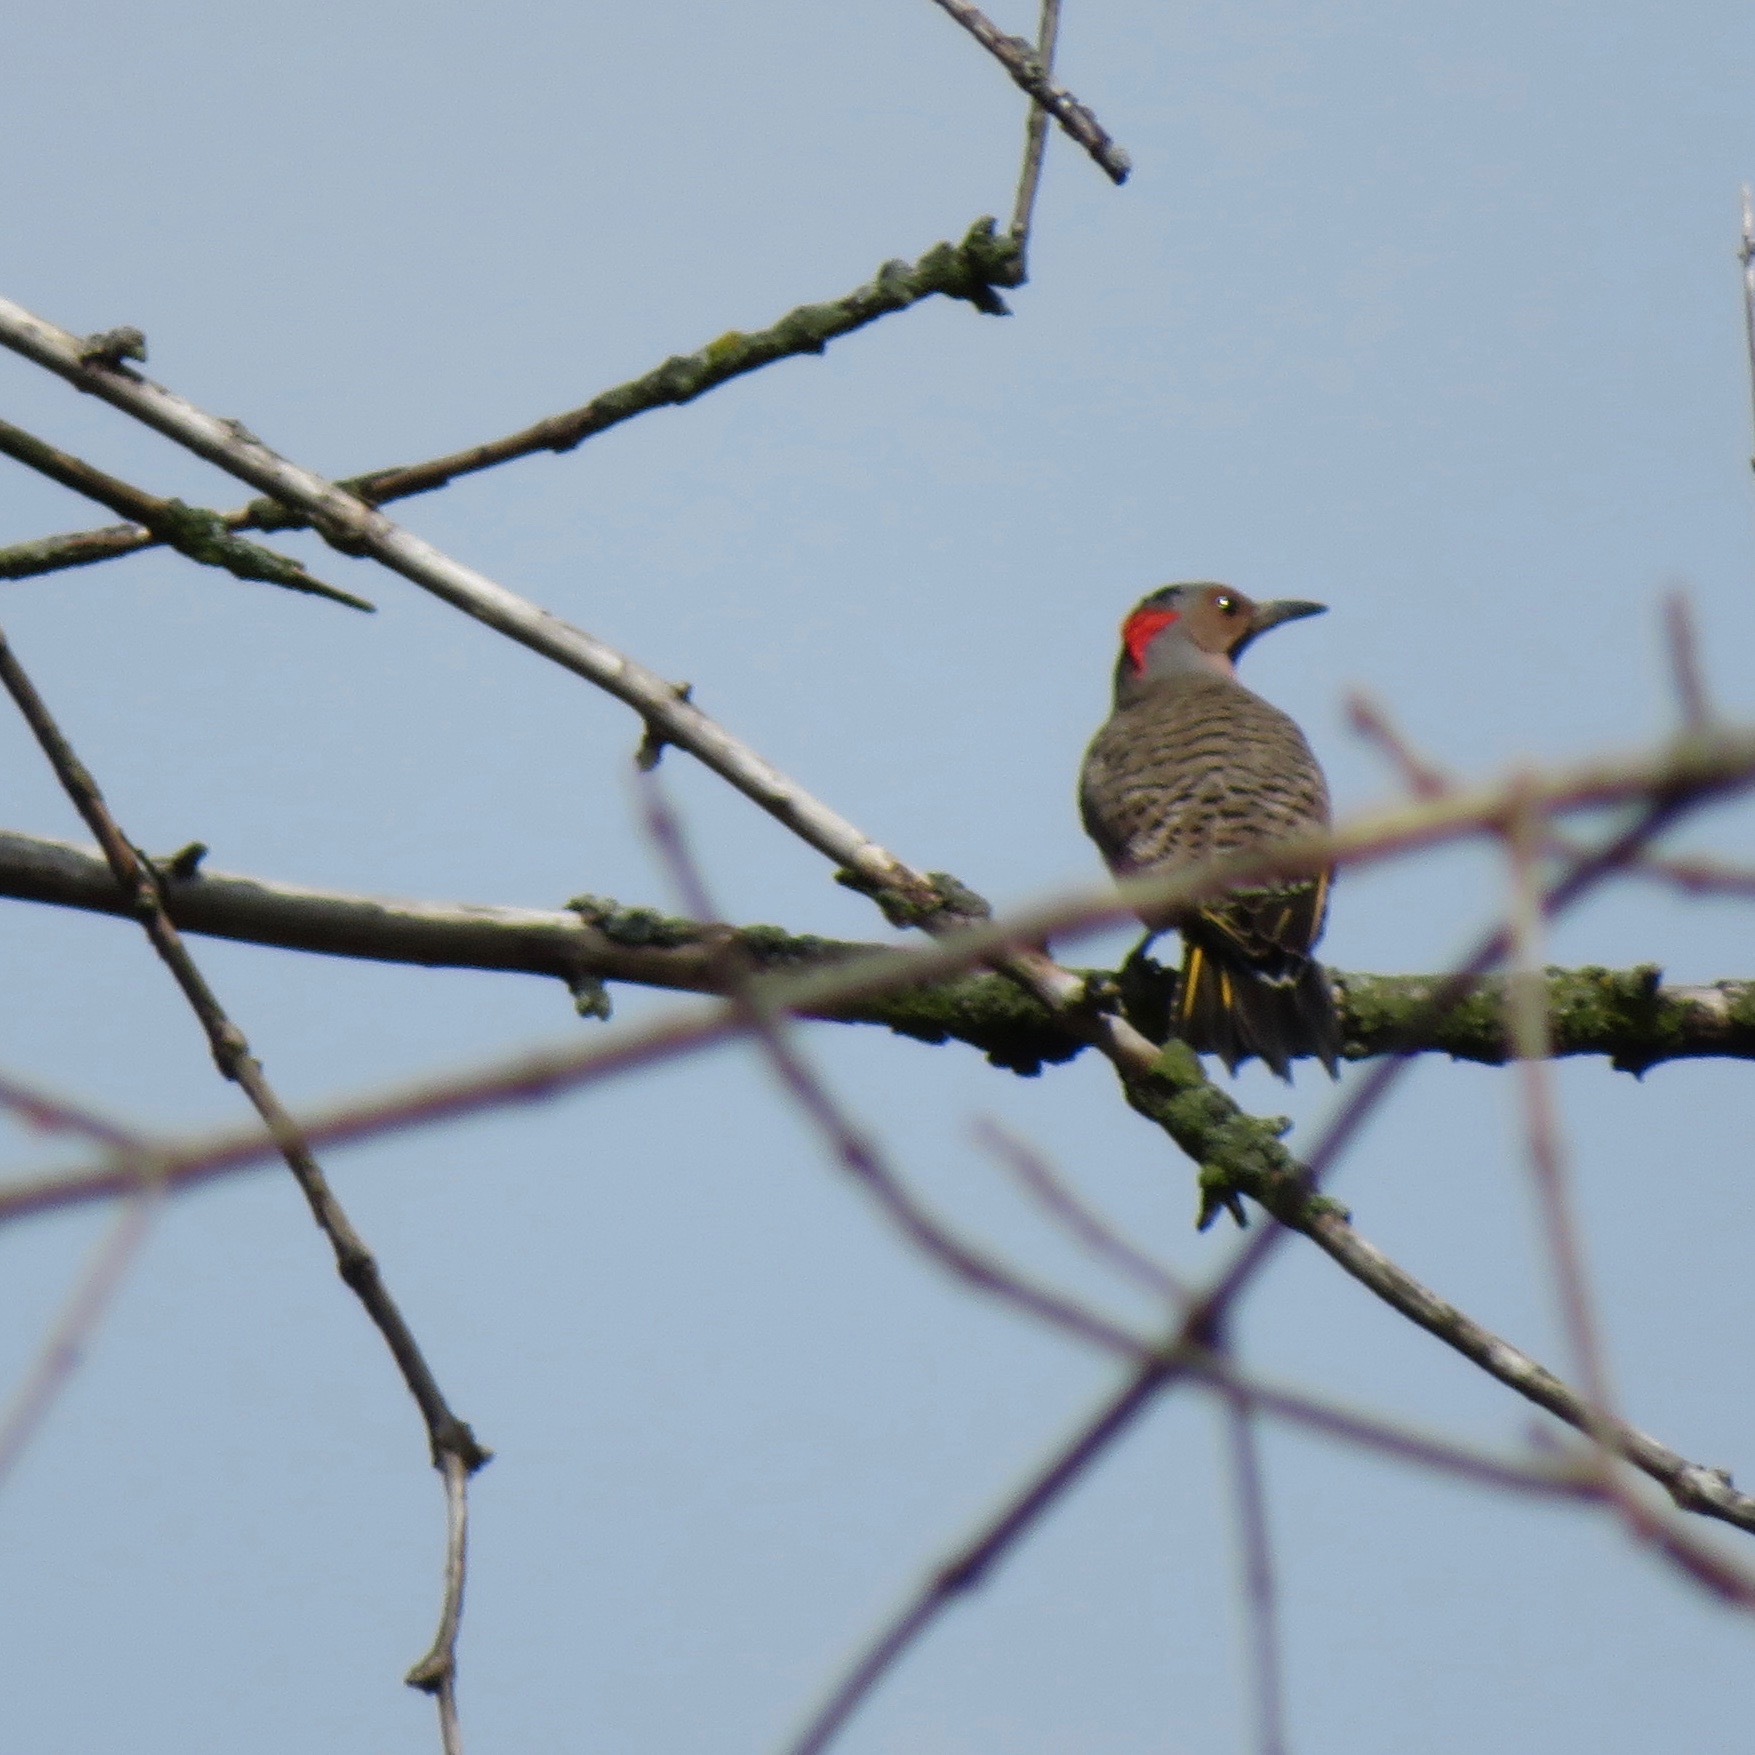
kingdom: Animalia
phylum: Chordata
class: Aves
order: Piciformes
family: Picidae
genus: Colaptes
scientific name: Colaptes auratus
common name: Northern flicker
